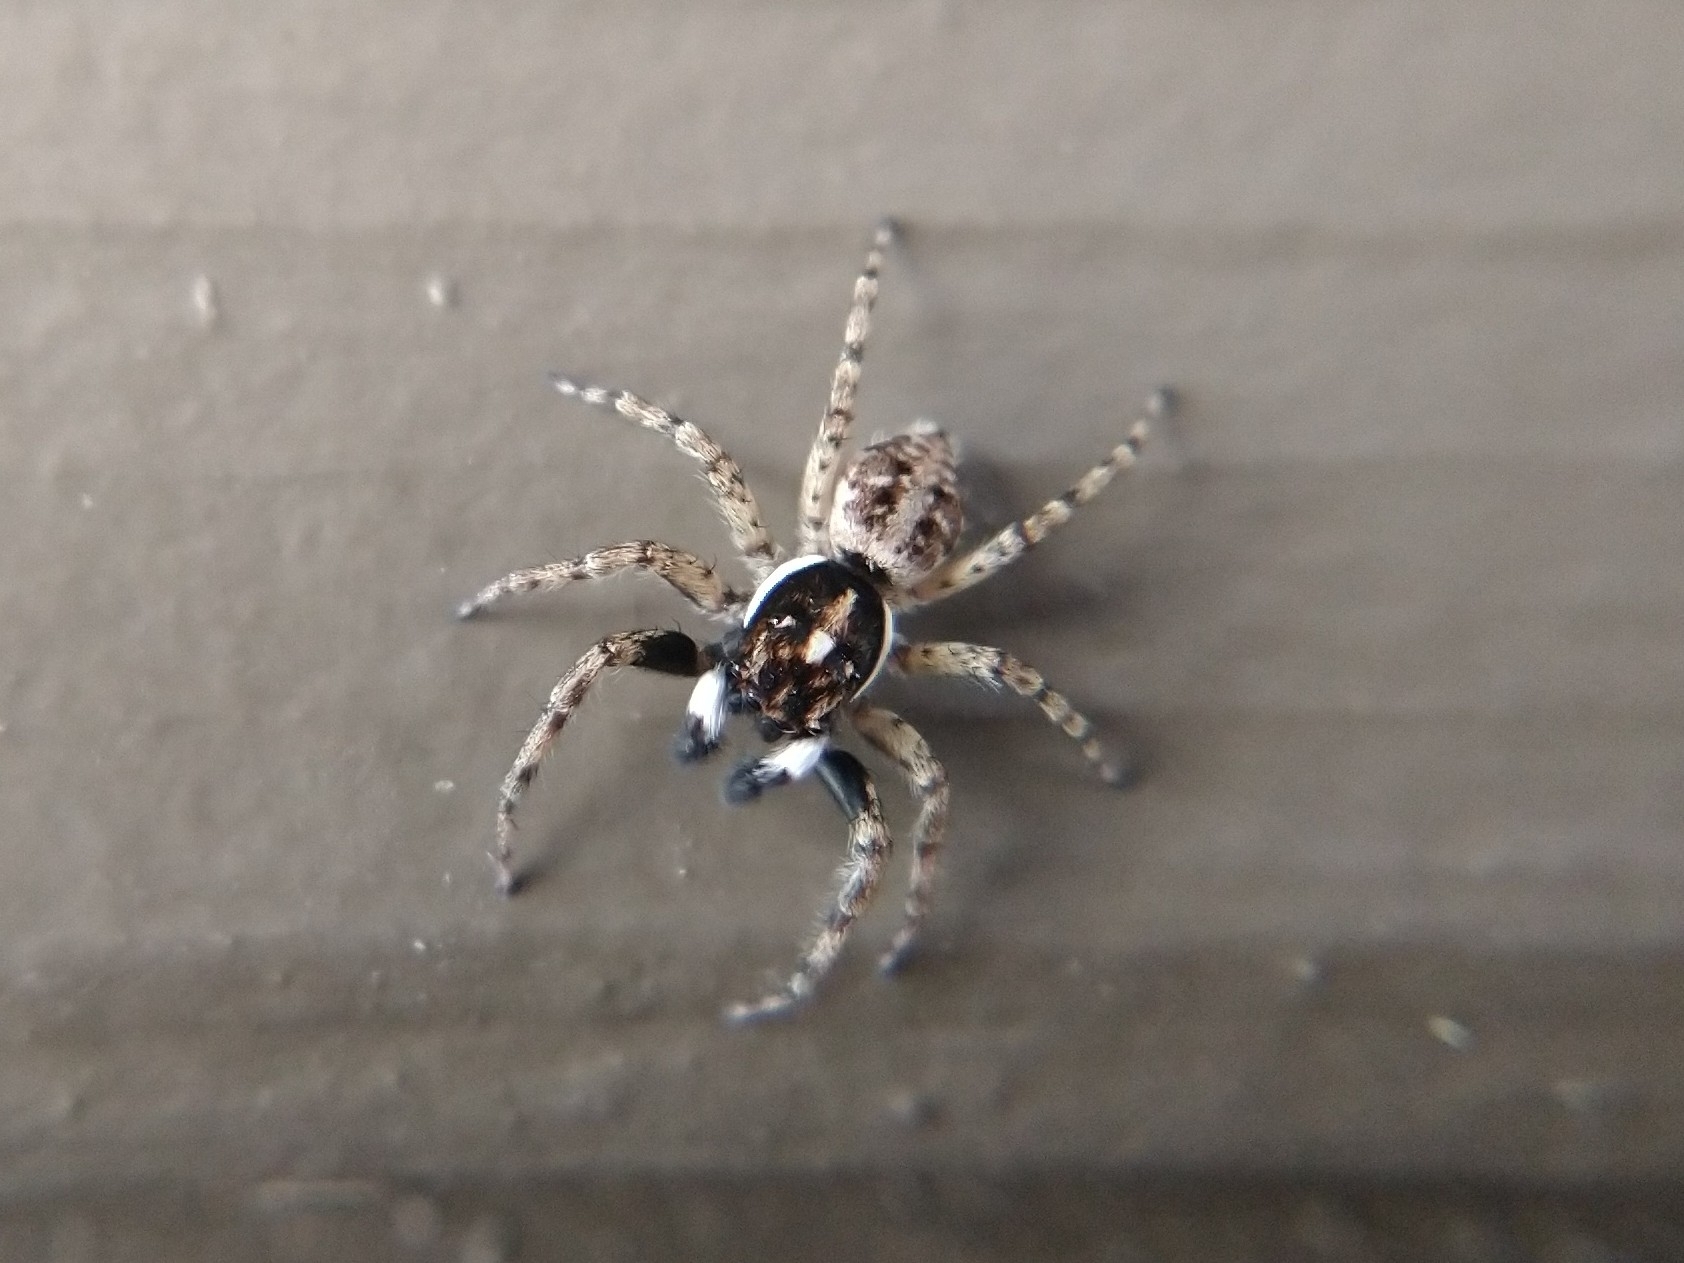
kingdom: Animalia
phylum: Arthropoda
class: Arachnida
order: Araneae
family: Salticidae
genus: Menemerus
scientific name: Menemerus semilimbatus
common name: Jumping spider
